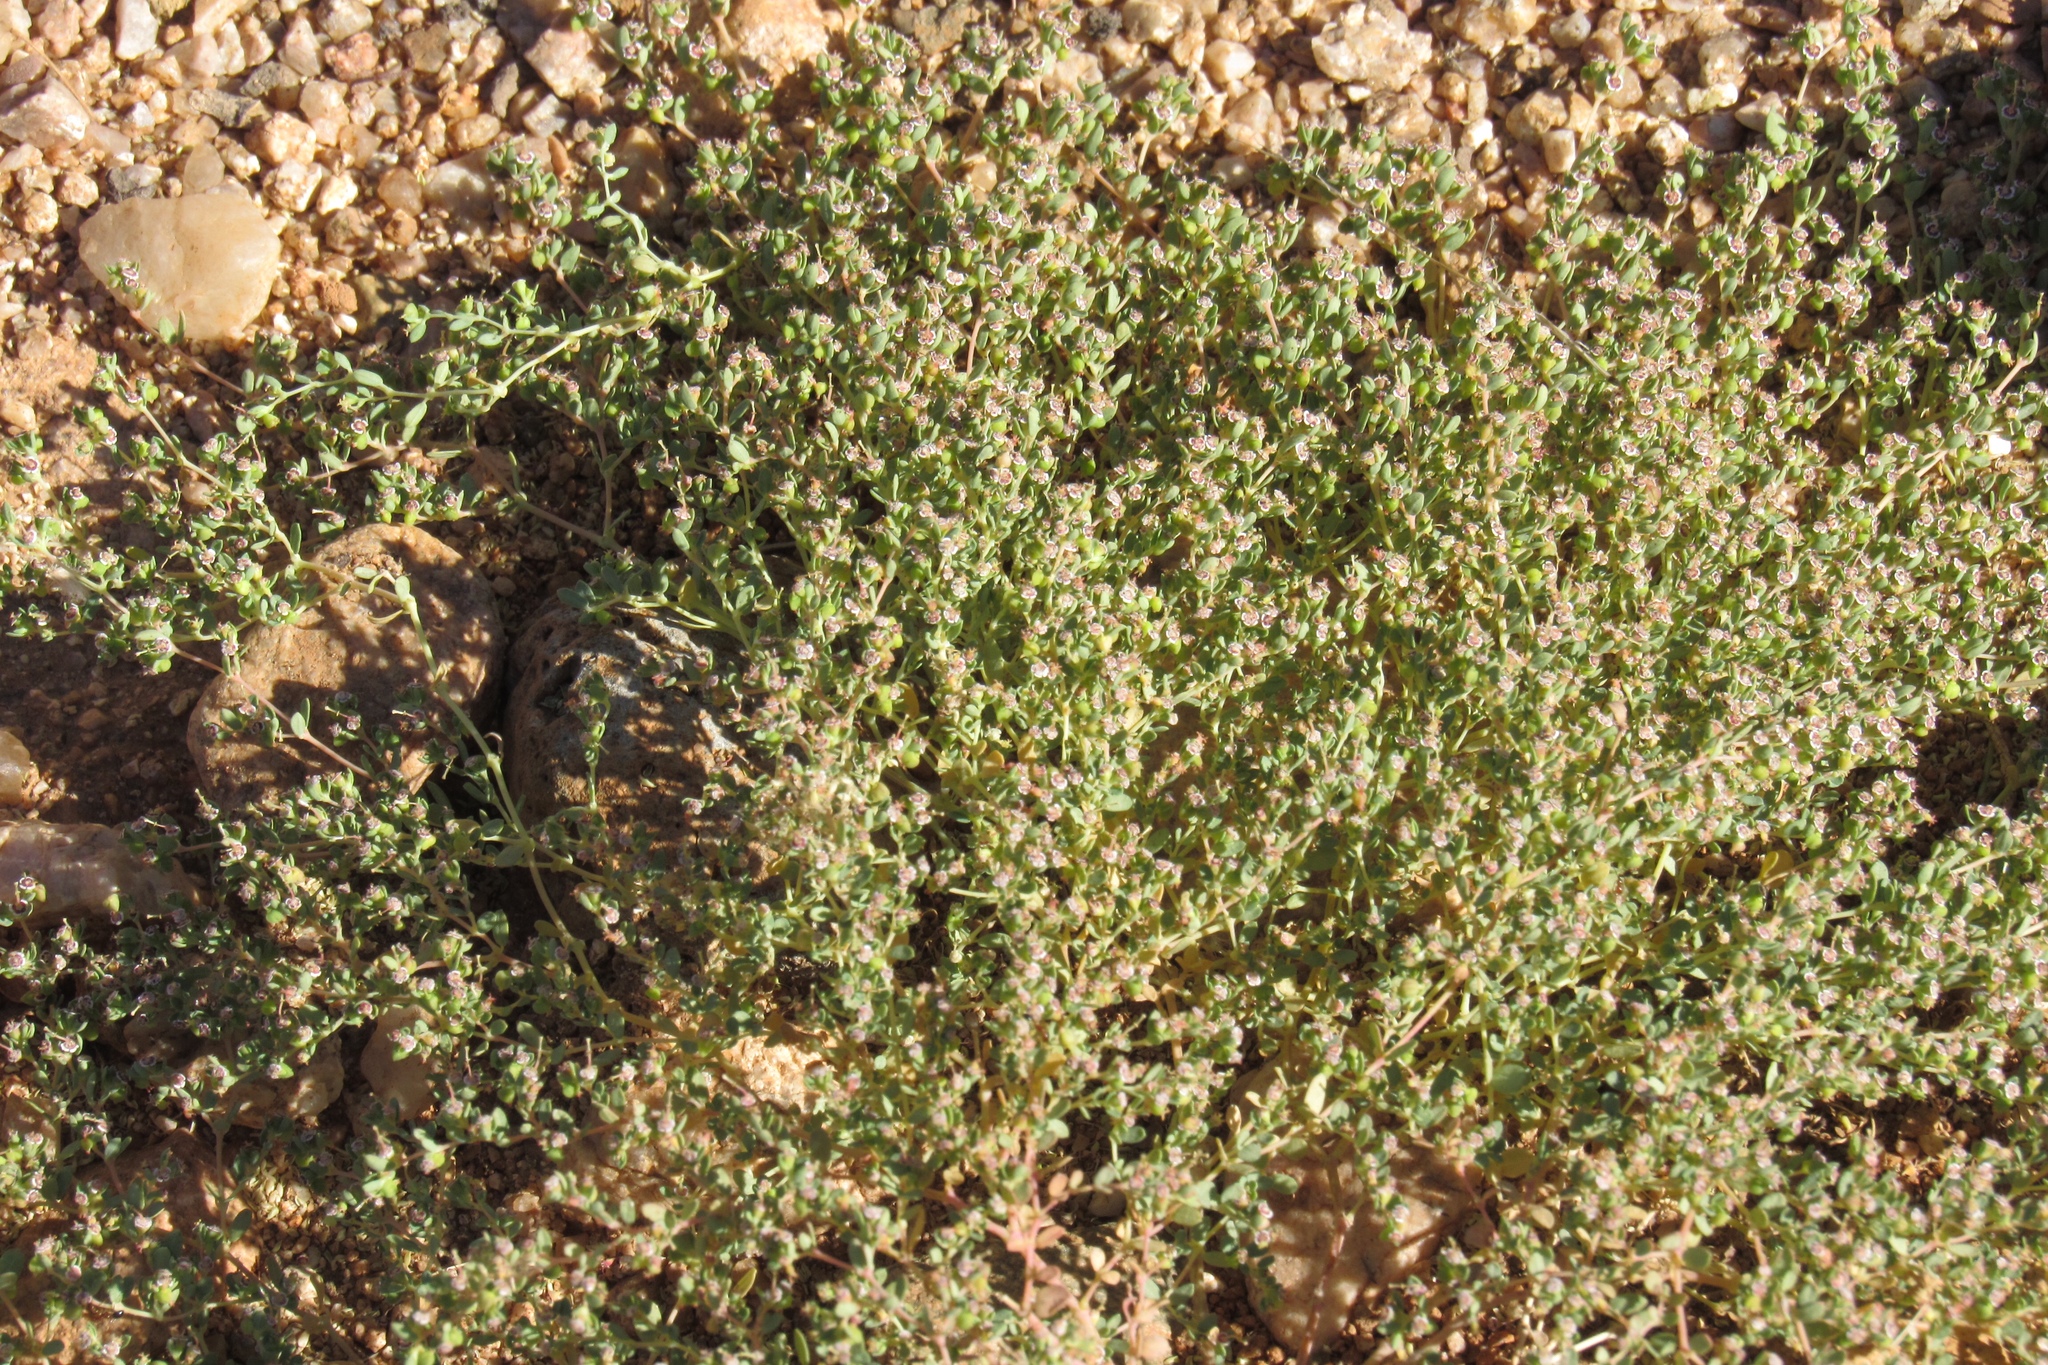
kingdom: Plantae
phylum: Tracheophyta
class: Magnoliopsida
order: Malpighiales
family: Euphorbiaceae
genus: Euphorbia
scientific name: Euphorbia polycarpa
